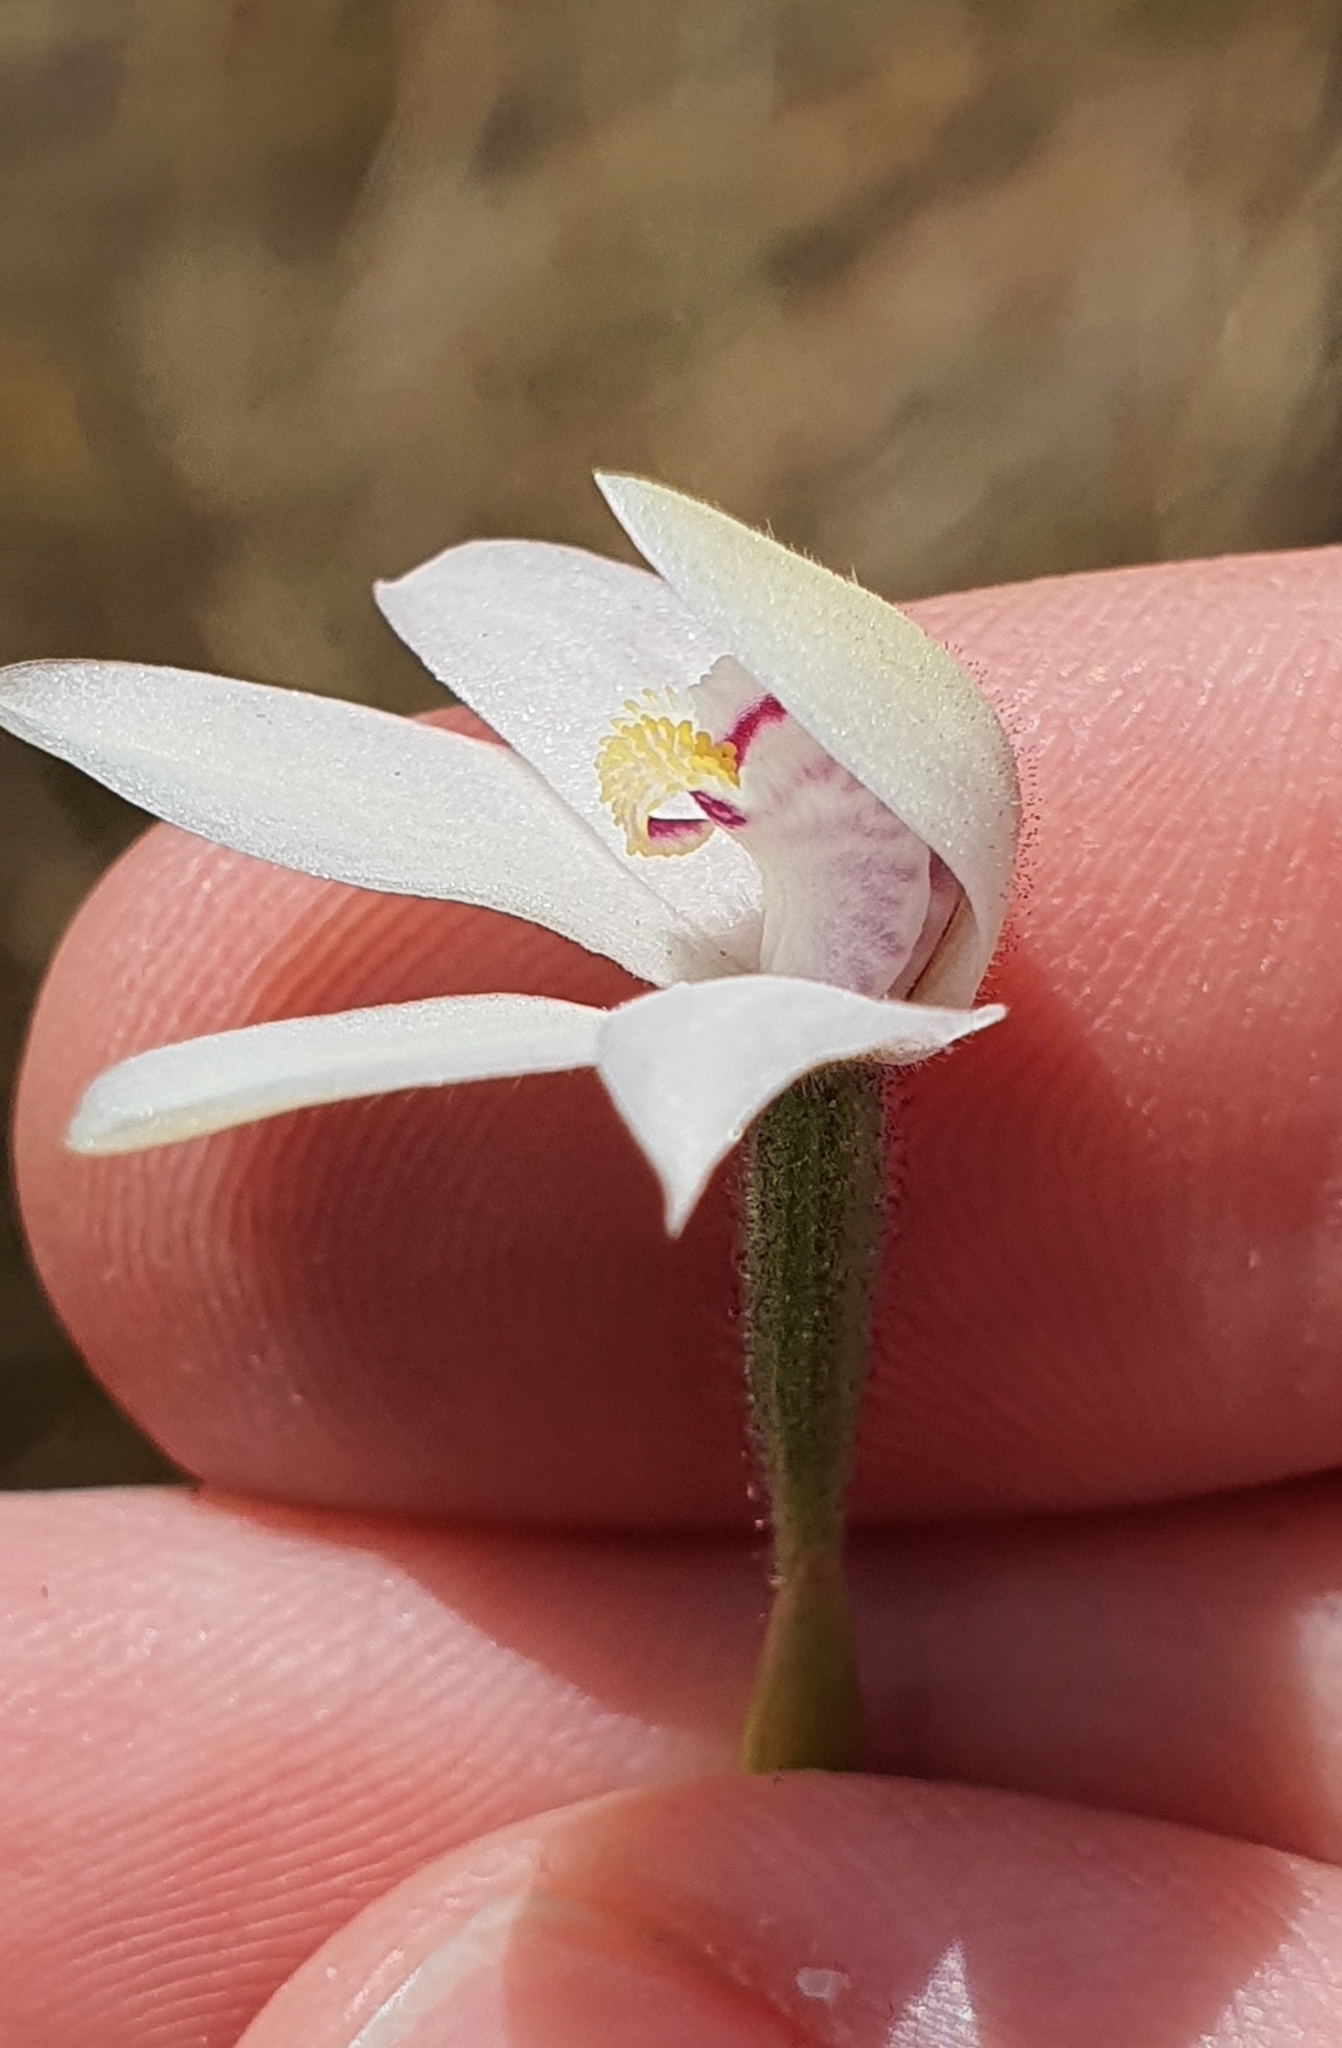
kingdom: Plantae
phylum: Tracheophyta
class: Liliopsida
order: Asparagales
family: Orchidaceae
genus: Caladenia
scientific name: Caladenia lyallii
